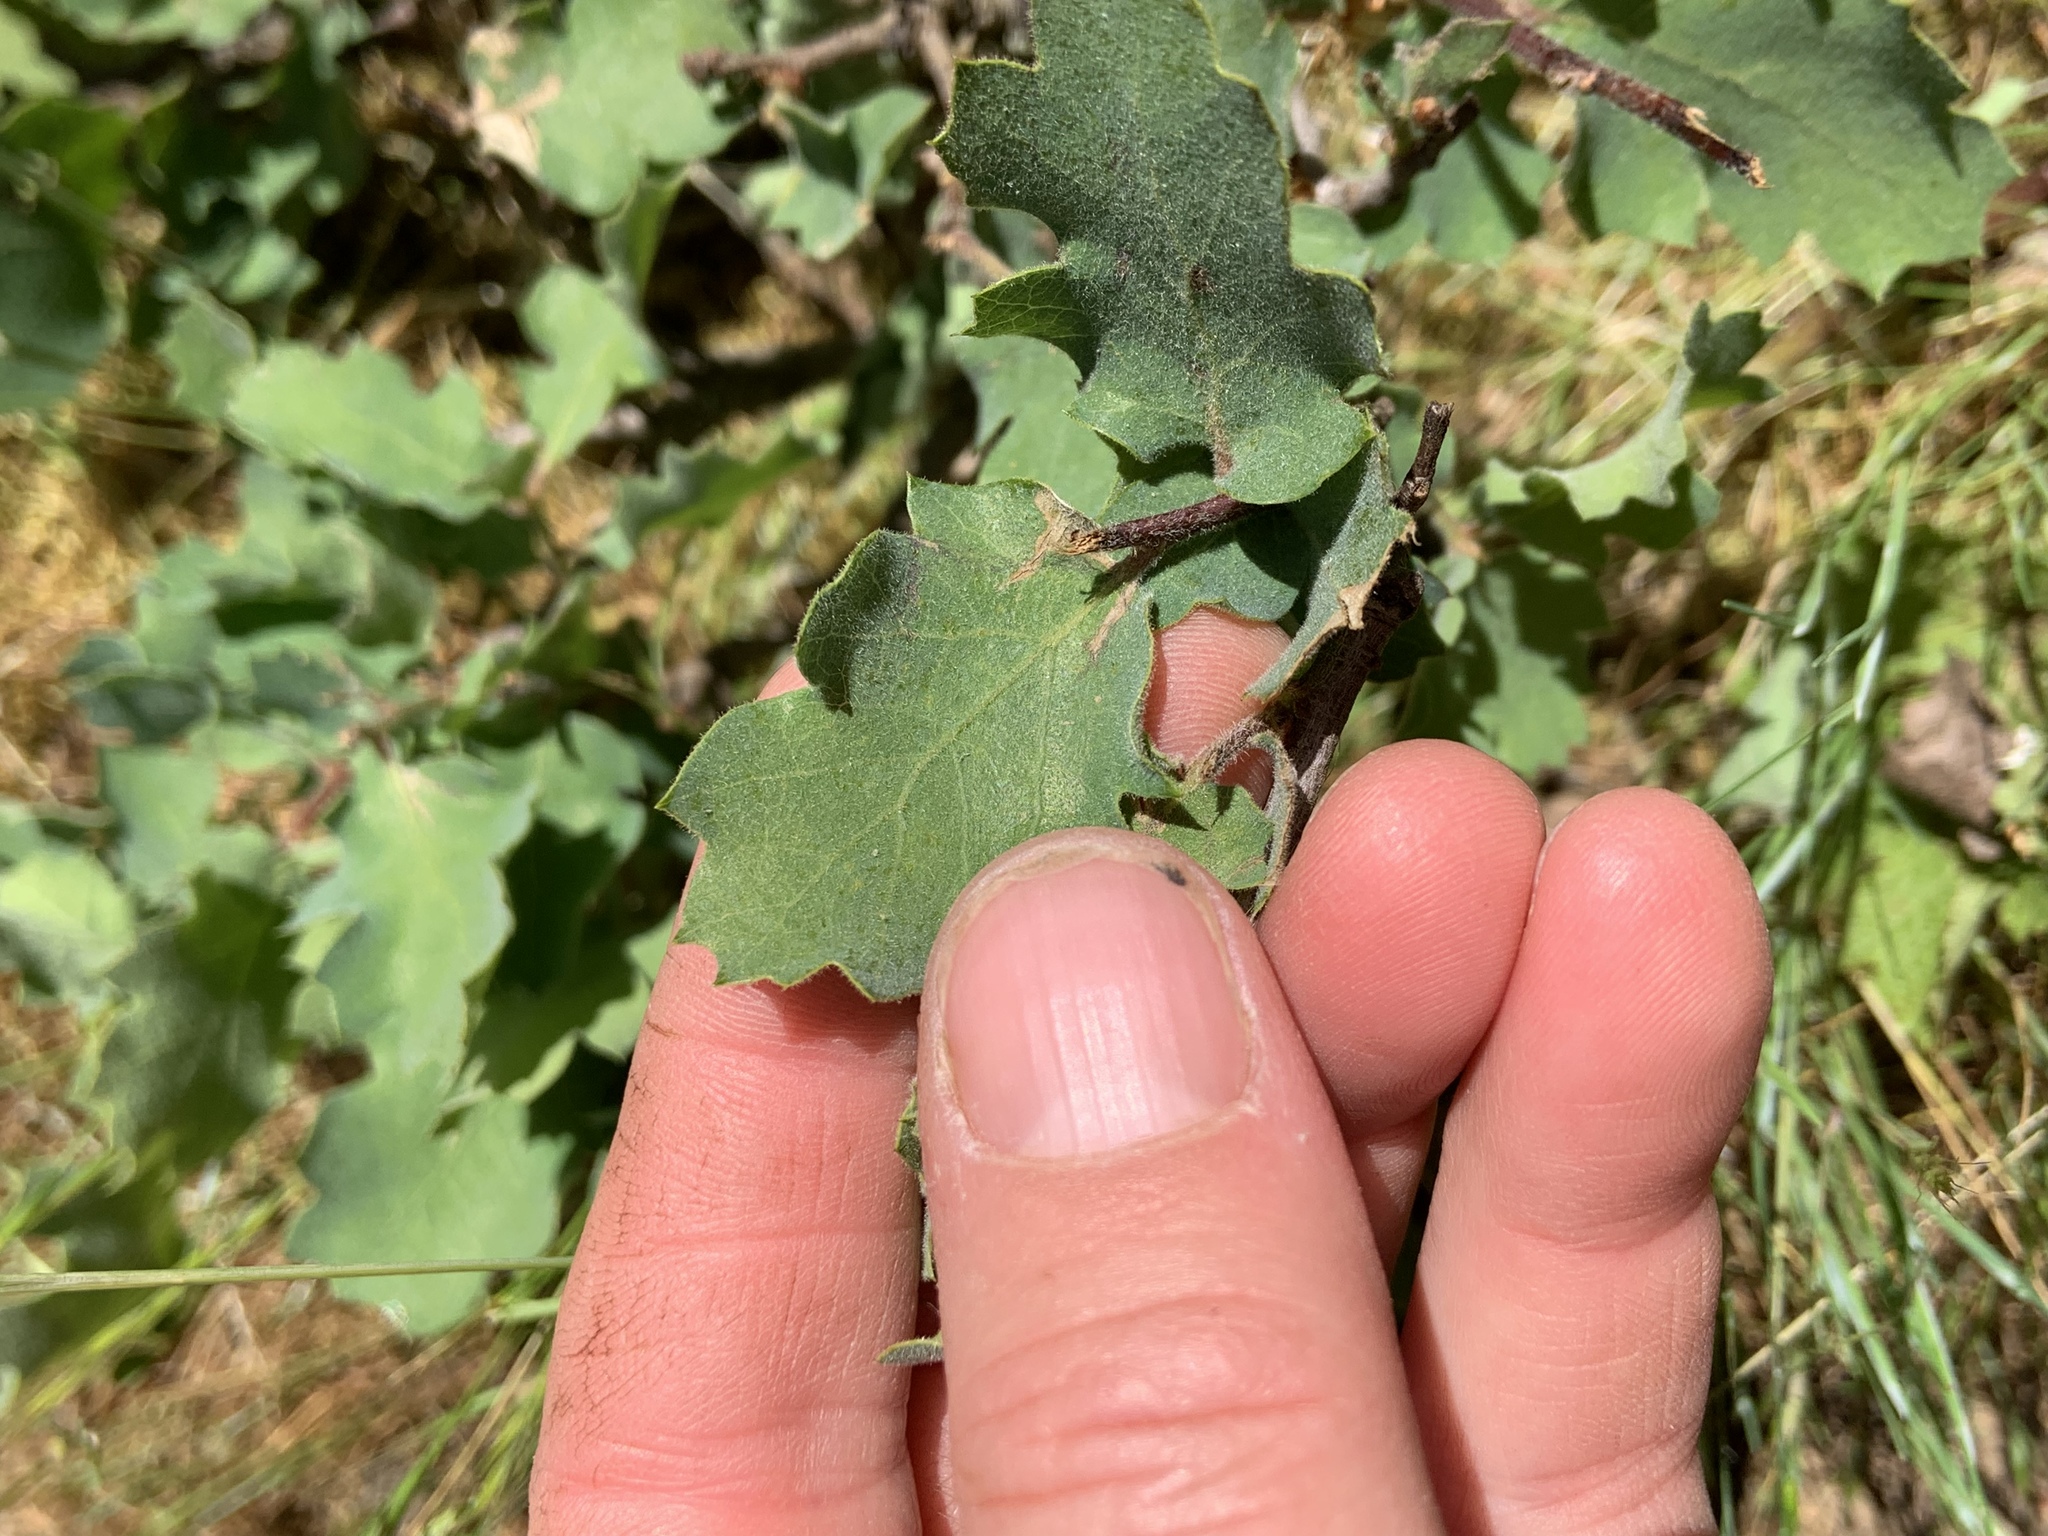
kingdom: Plantae
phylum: Tracheophyta
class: Magnoliopsida
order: Fagales
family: Fagaceae
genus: Quercus
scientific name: Quercus douglasii
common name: Blue oak
